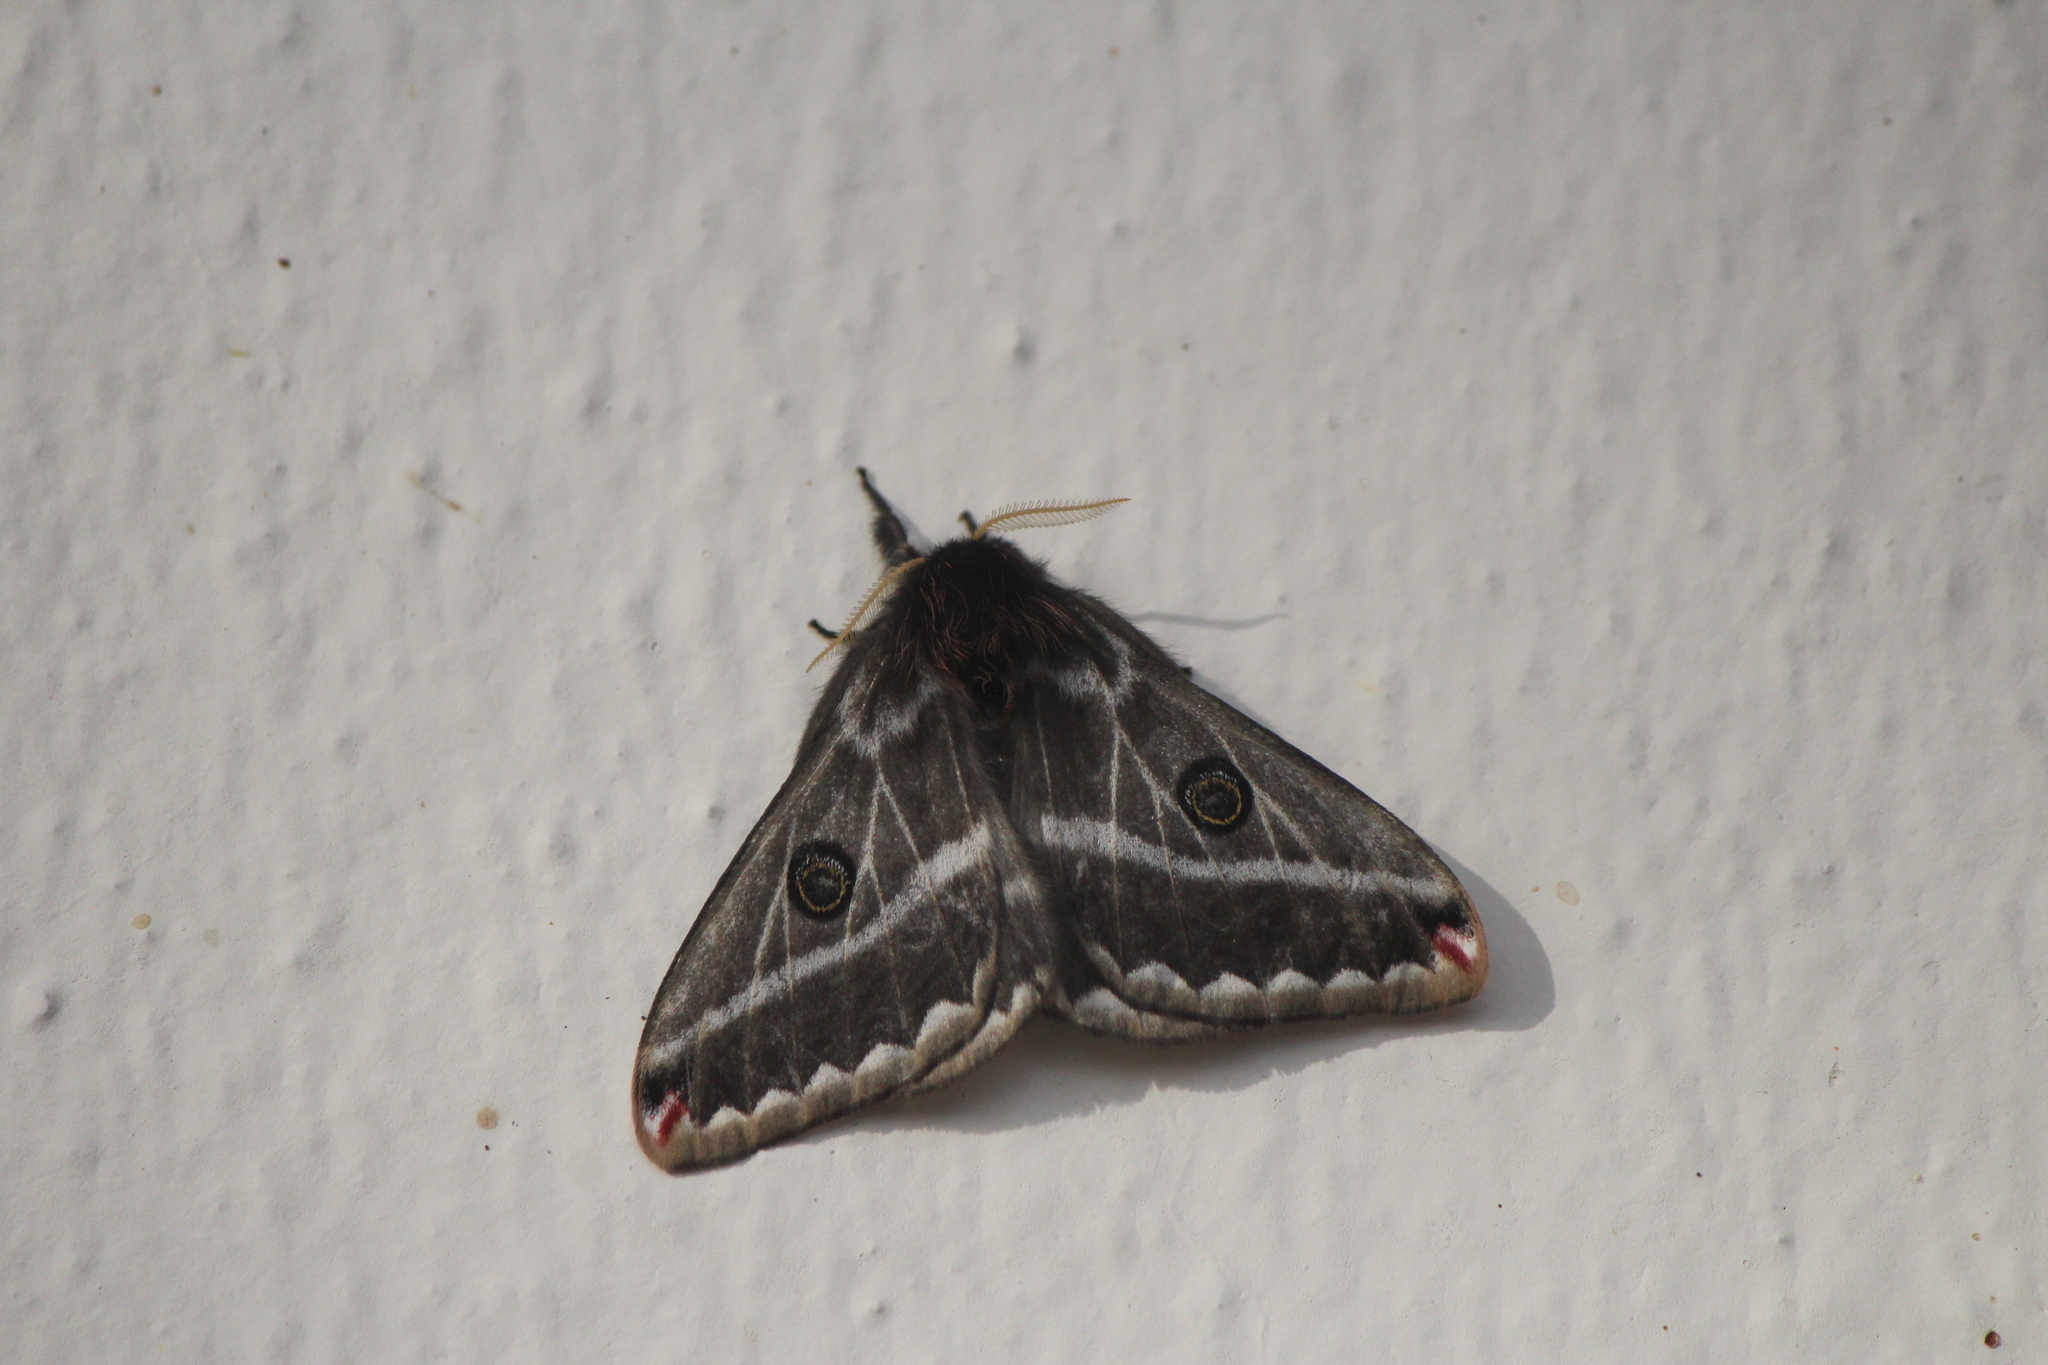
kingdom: Animalia
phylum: Arthropoda
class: Insecta
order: Lepidoptera
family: Saturniidae
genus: Agapema
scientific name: Agapema
